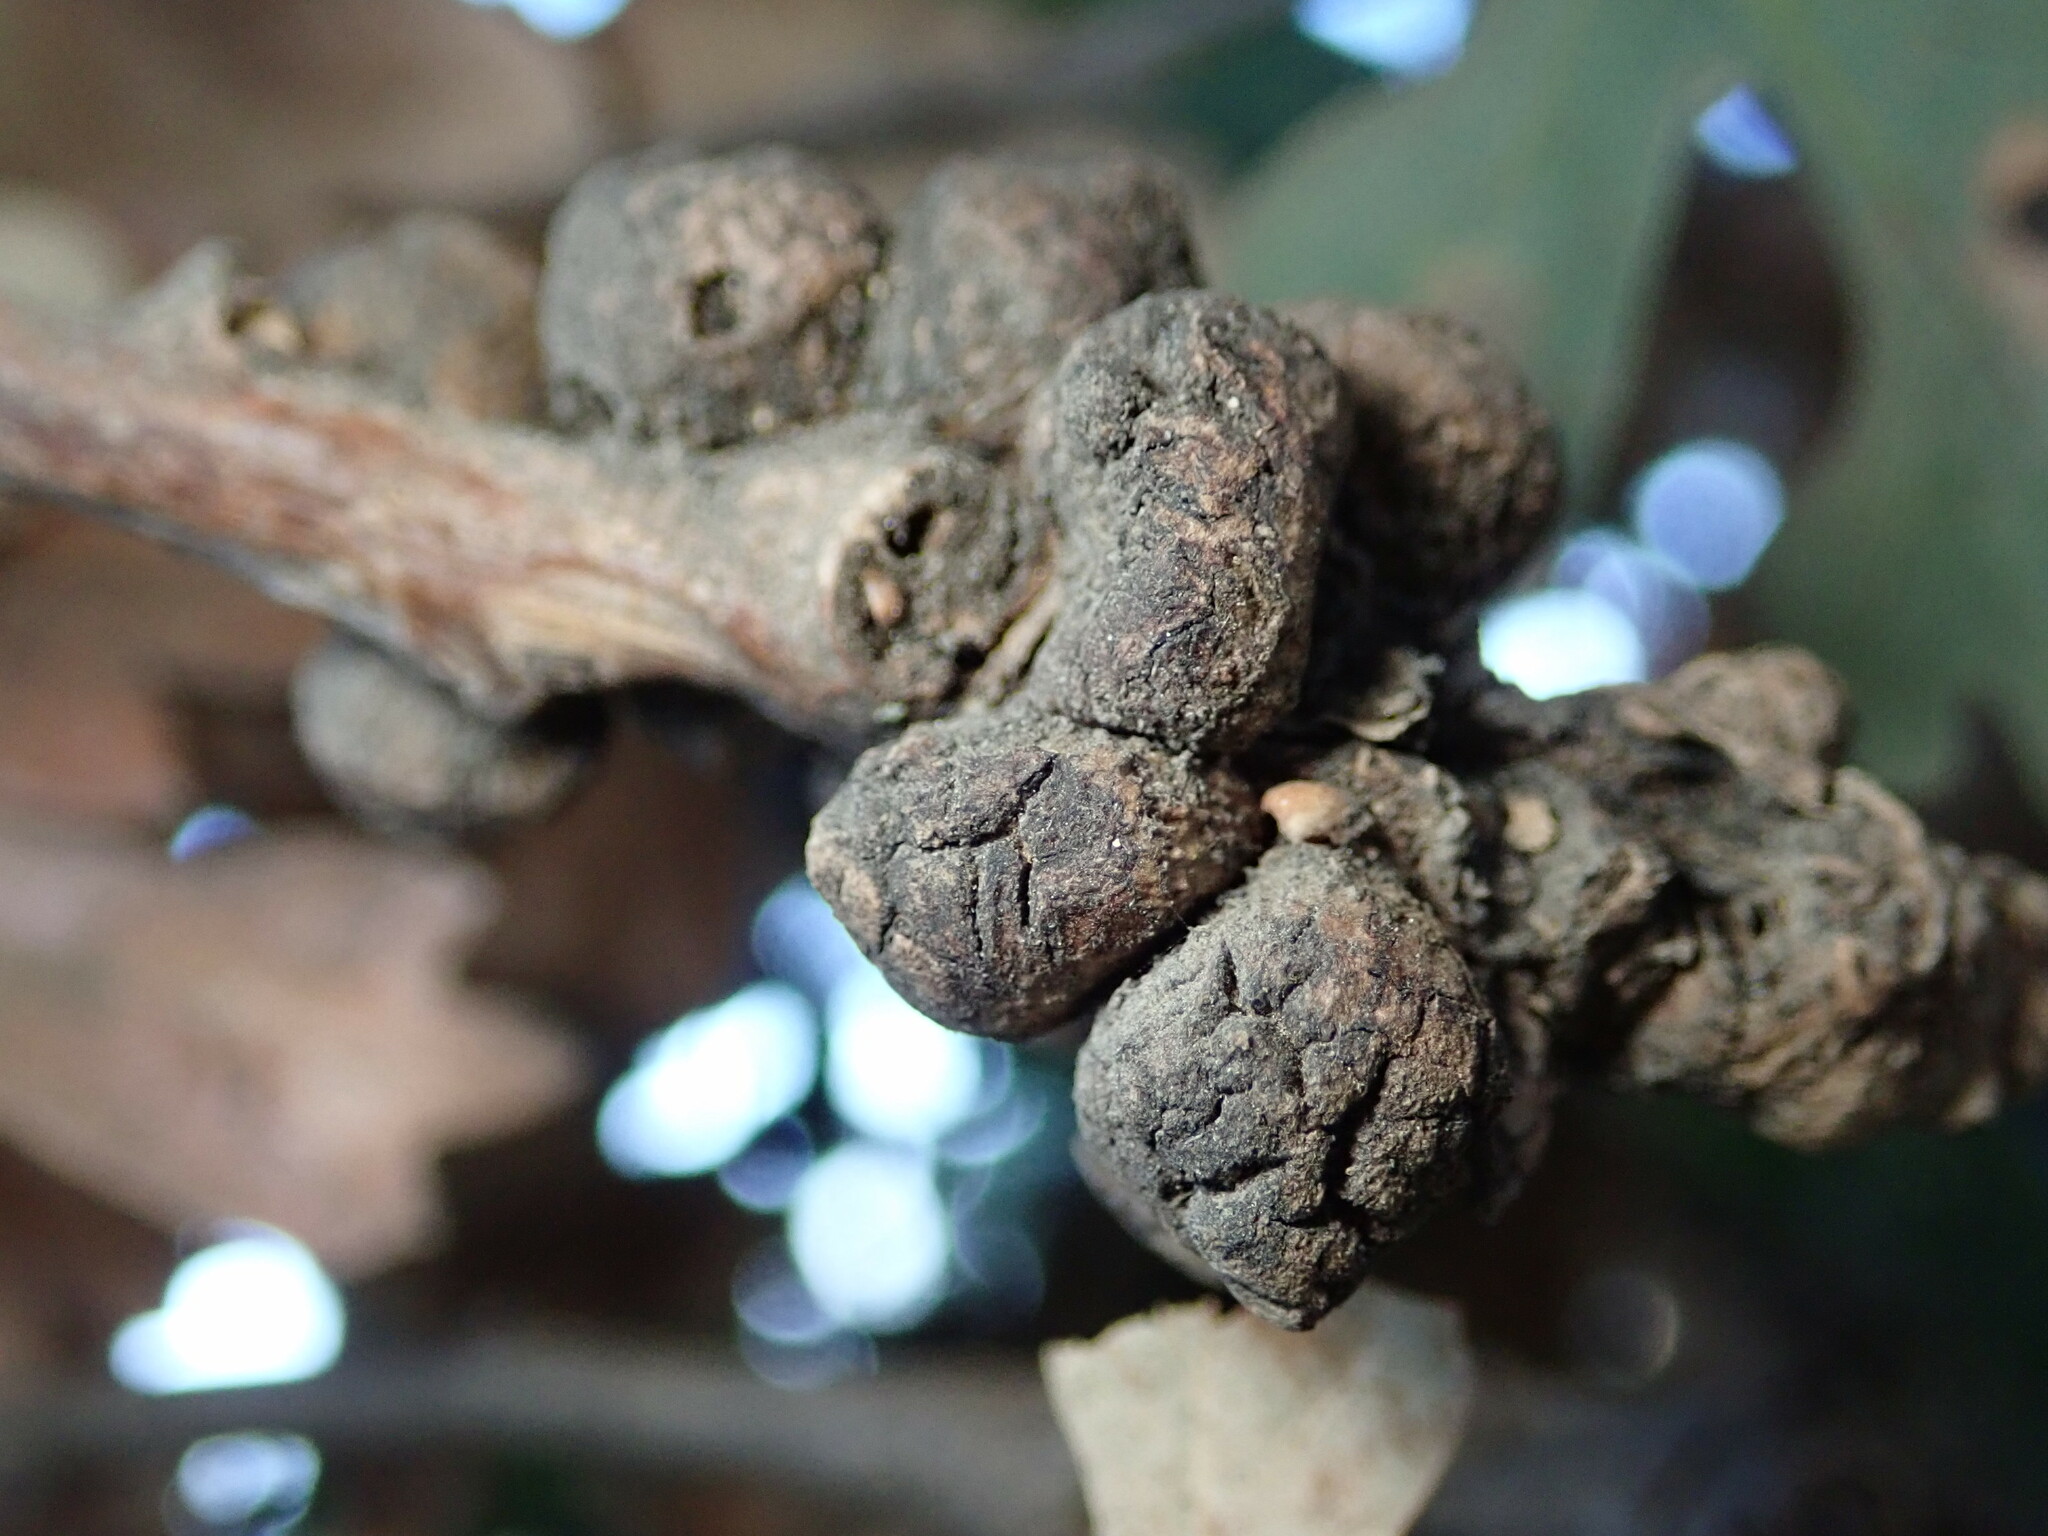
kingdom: Animalia
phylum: Arthropoda
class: Insecta
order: Hymenoptera
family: Cynipidae
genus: Disholcaspis
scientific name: Disholcaspis
